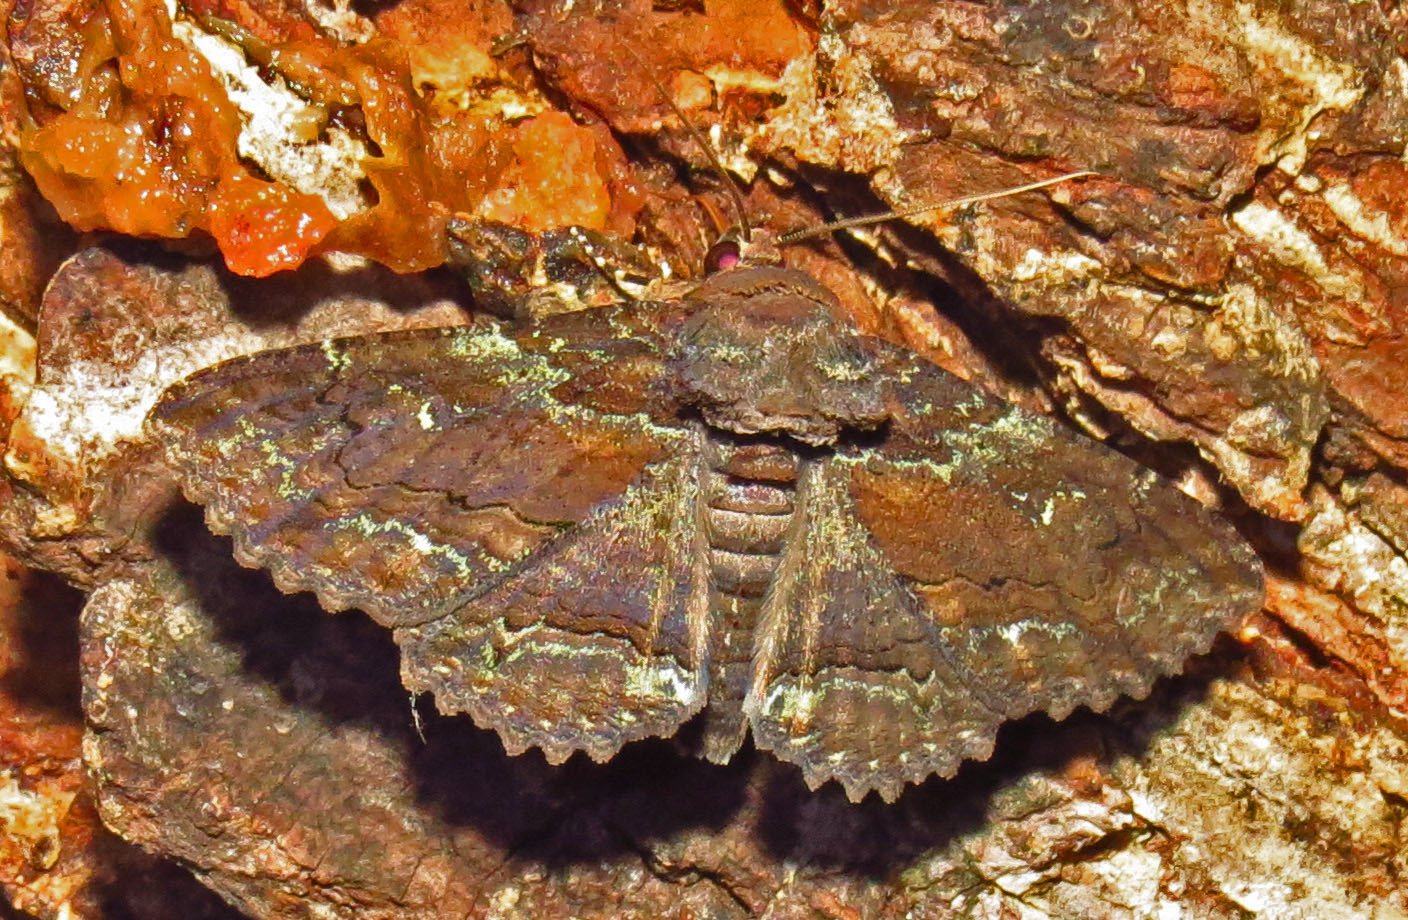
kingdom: Animalia
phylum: Arthropoda
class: Insecta
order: Lepidoptera
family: Erebidae
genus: Zale
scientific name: Zale lunata
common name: Lunate zale moth
